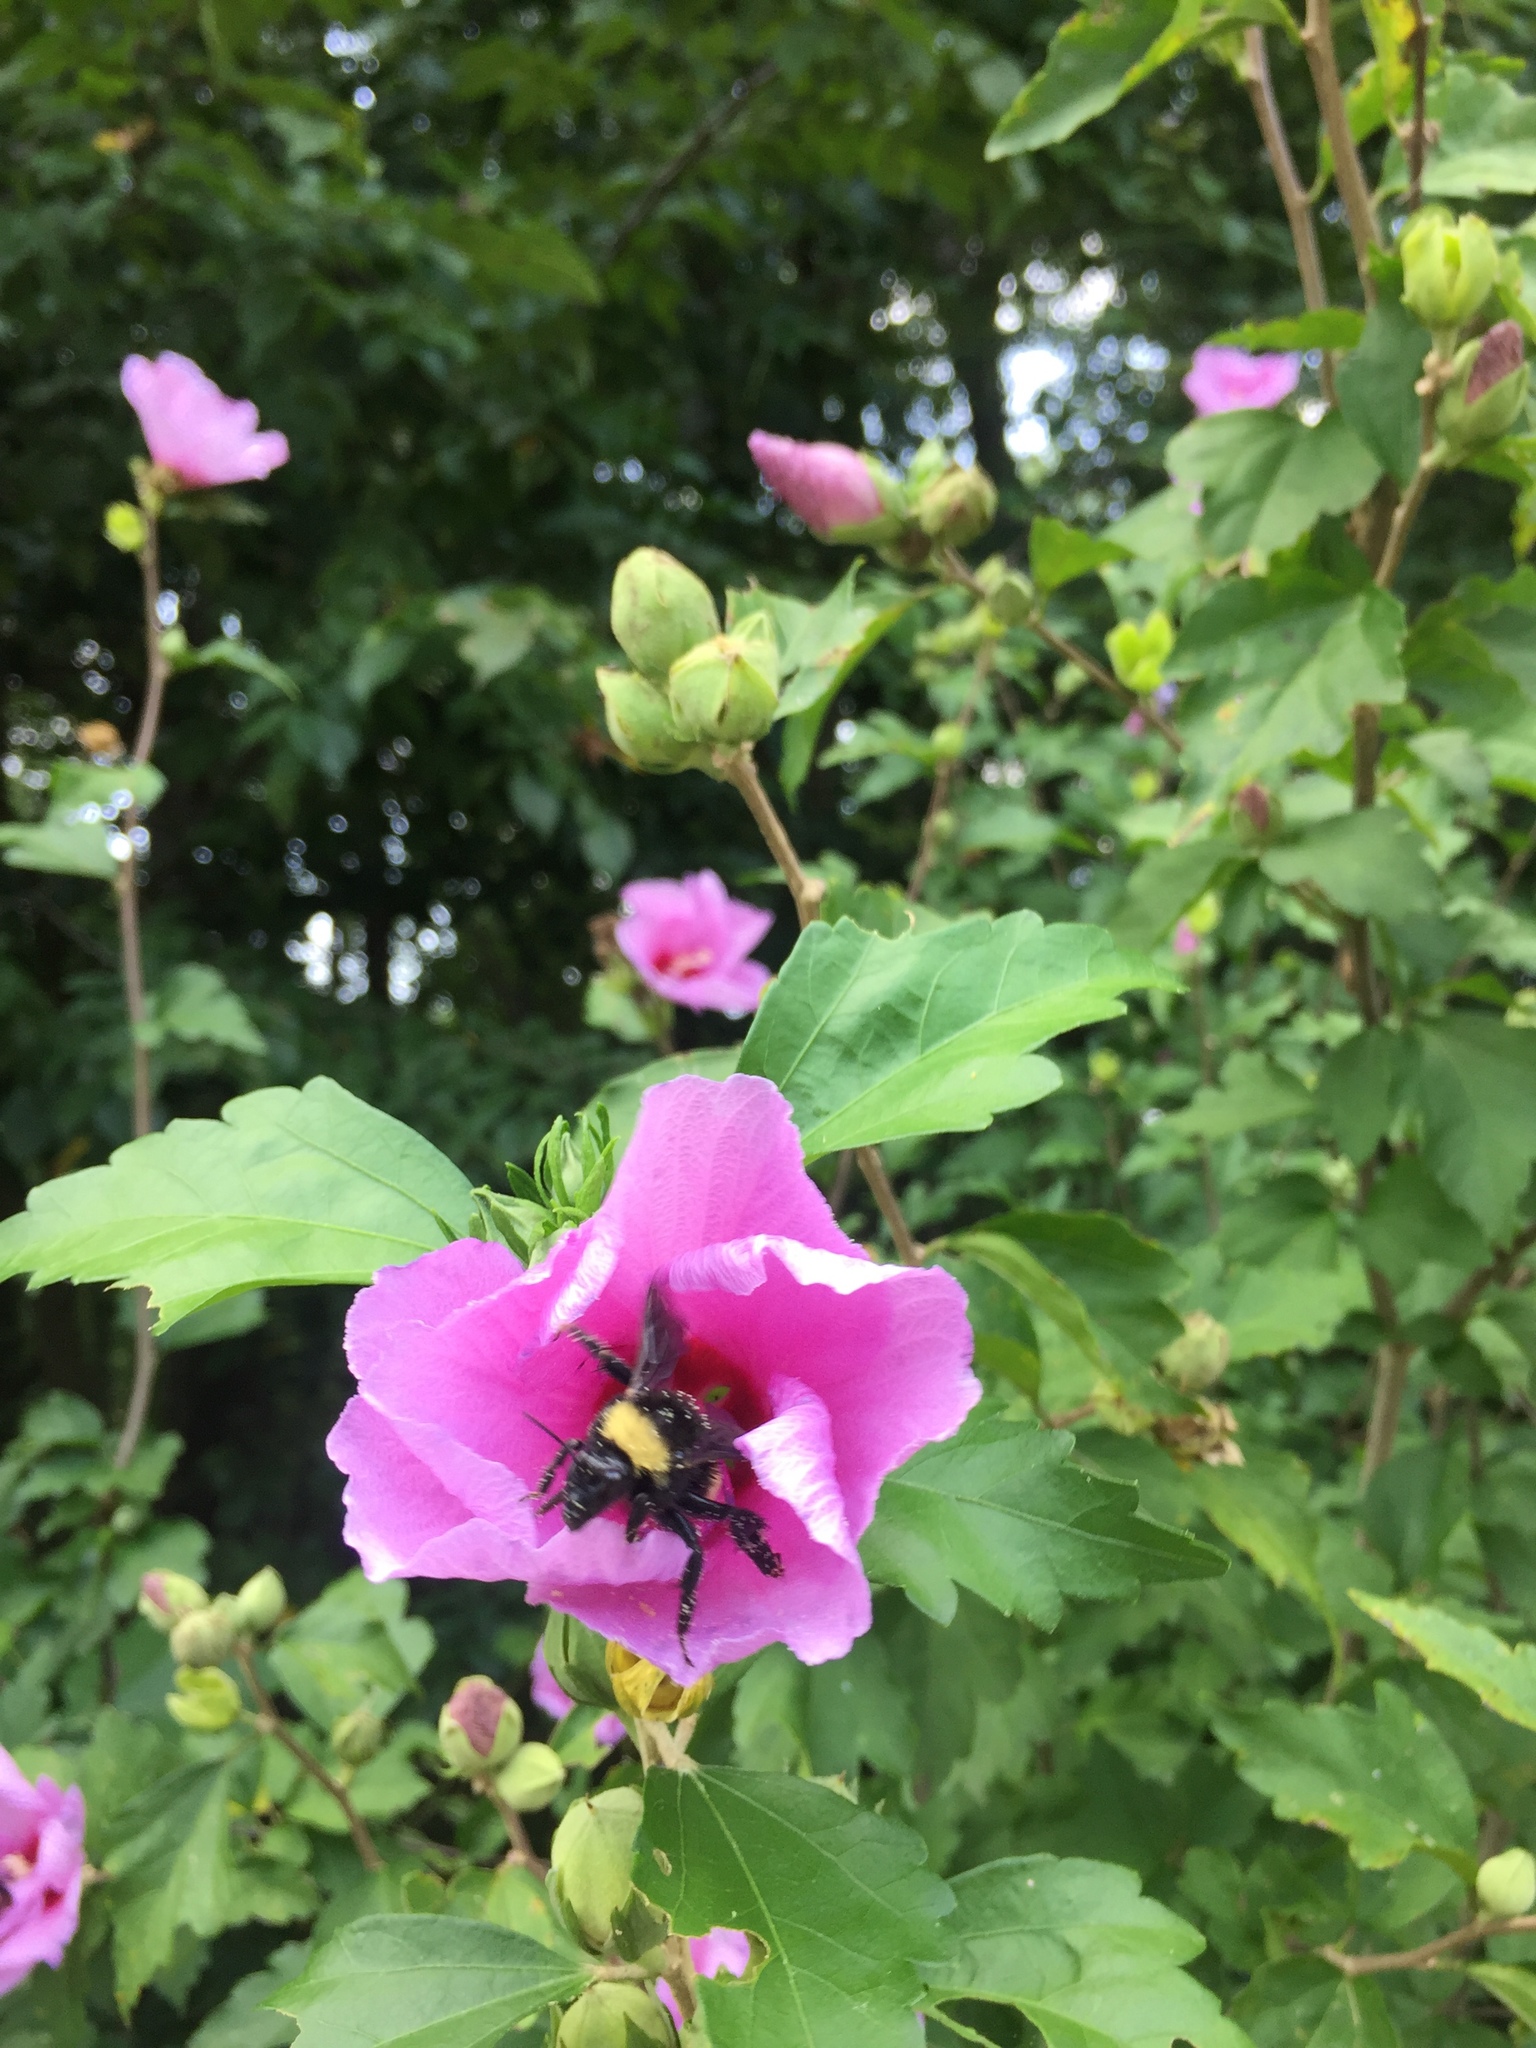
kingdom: Animalia
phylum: Arthropoda
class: Insecta
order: Hymenoptera
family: Apidae
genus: Bombus
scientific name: Bombus pensylvanicus
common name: Bumble bee
